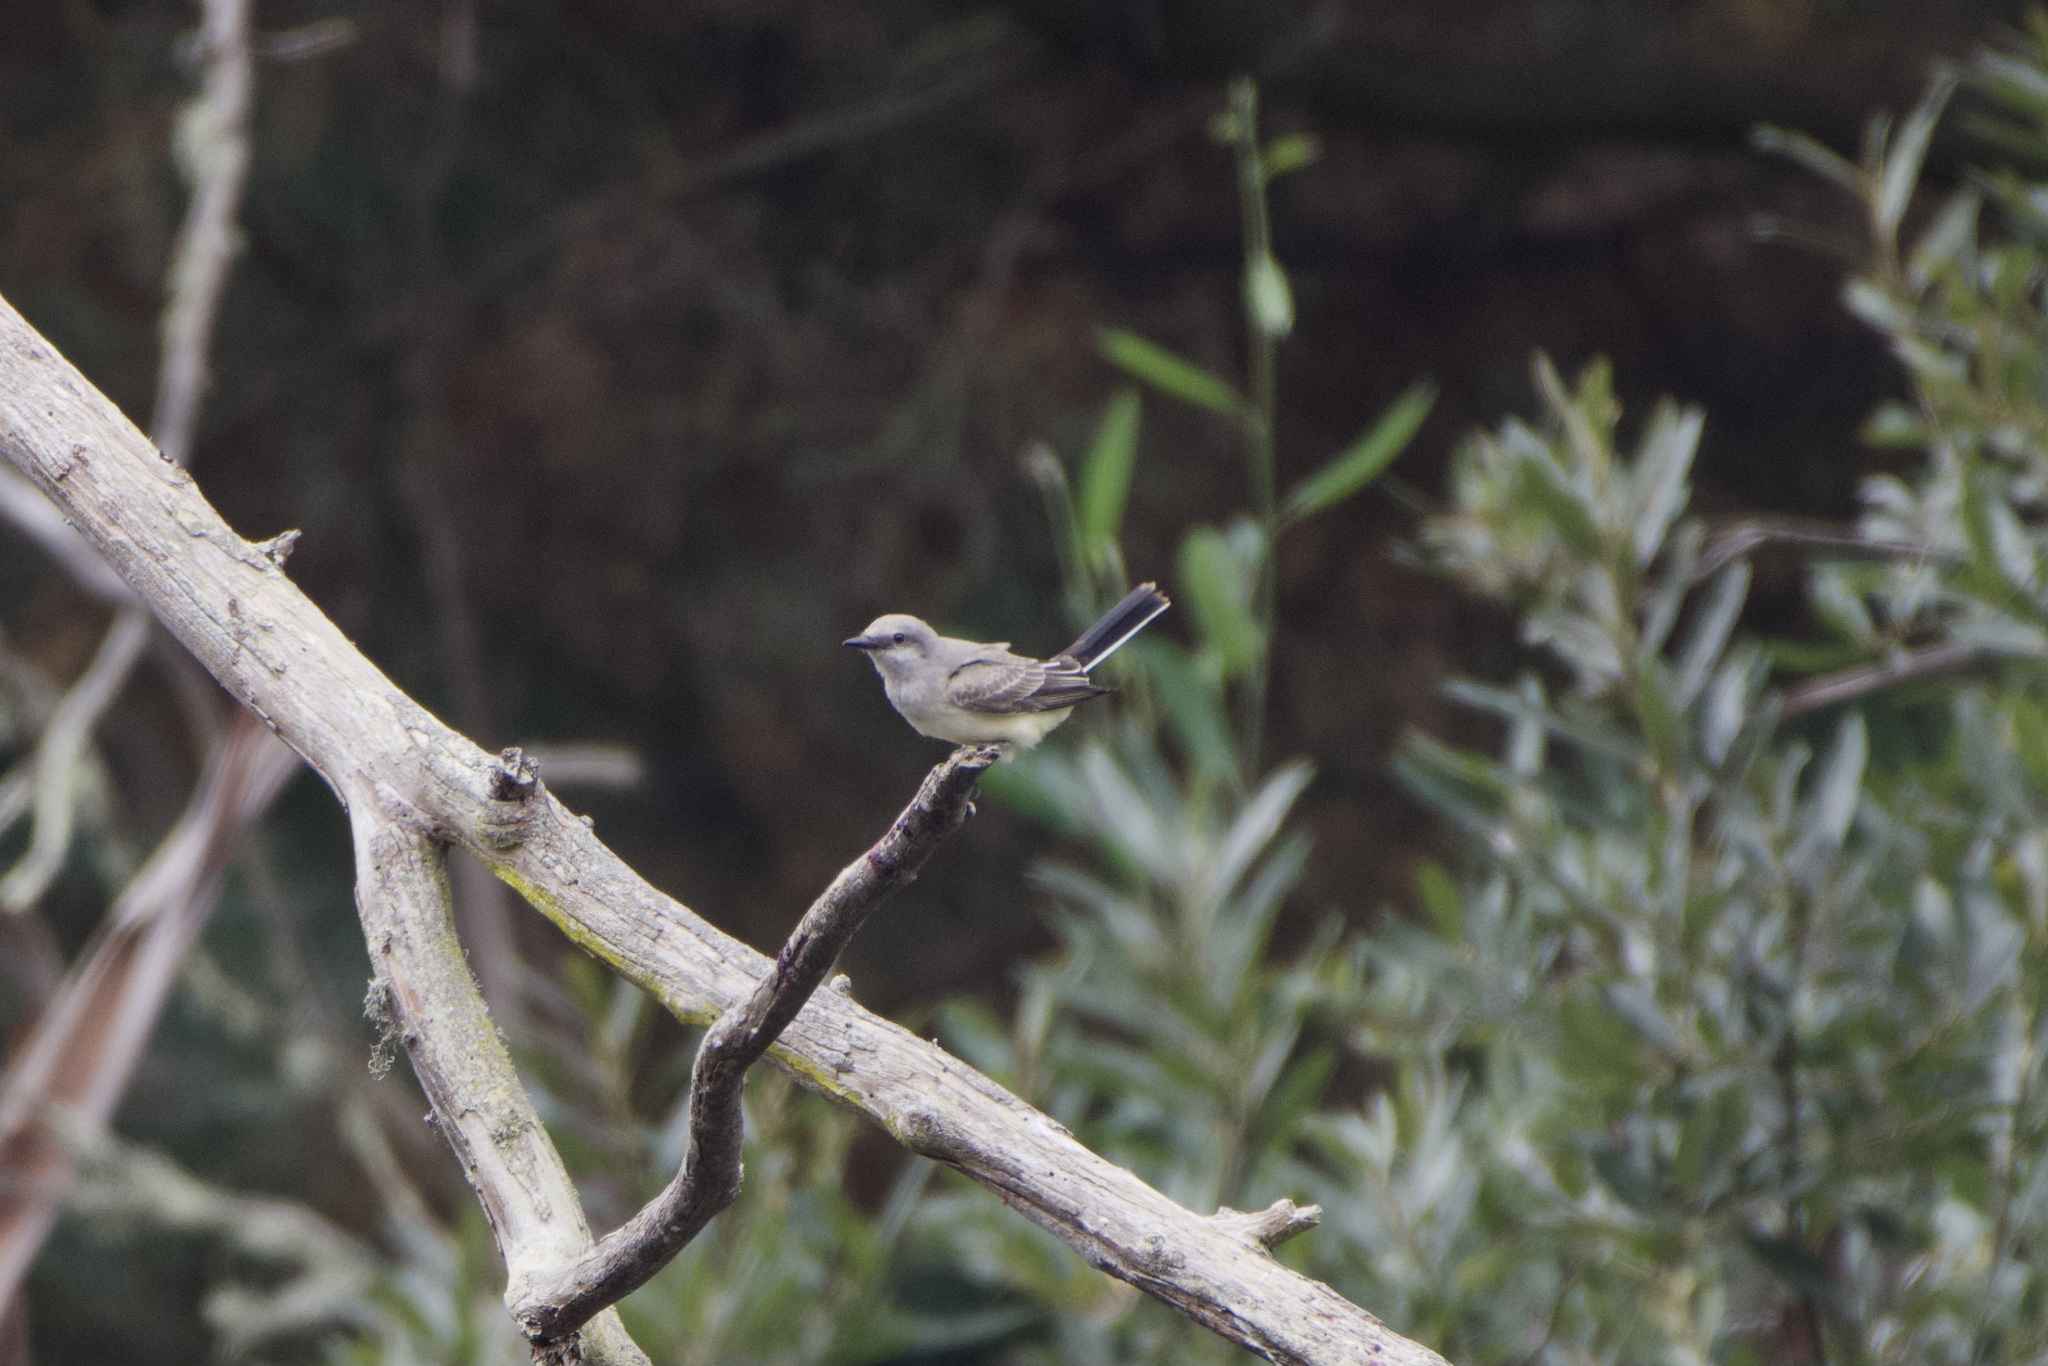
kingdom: Animalia
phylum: Chordata
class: Aves
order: Passeriformes
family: Tyrannidae
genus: Tyrannus
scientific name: Tyrannus verticalis
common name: Western kingbird
